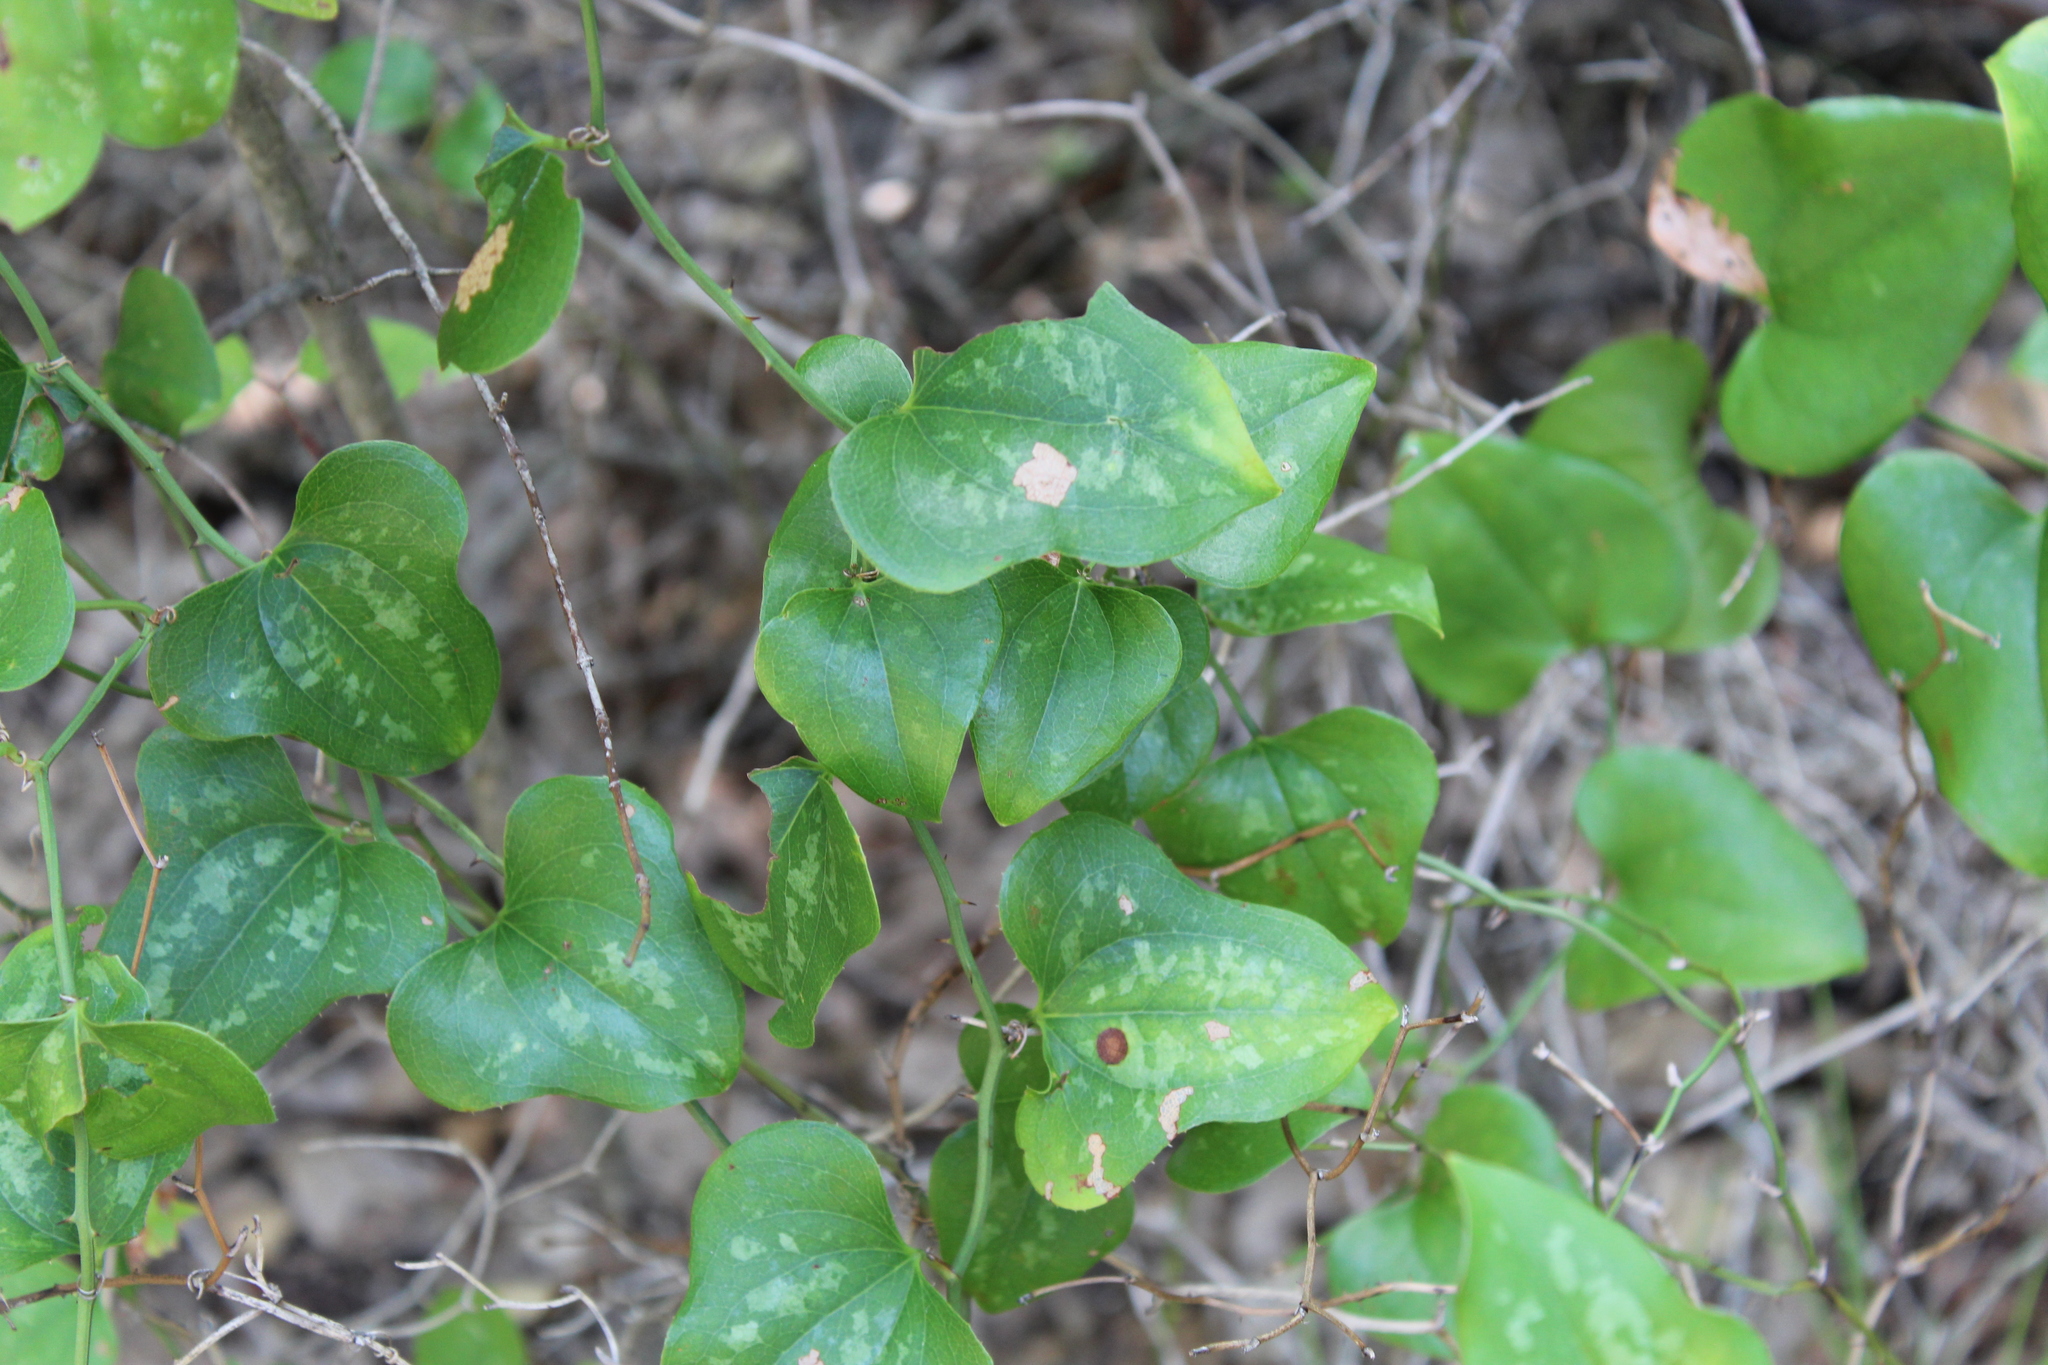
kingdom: Plantae
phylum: Tracheophyta
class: Liliopsida
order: Liliales
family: Smilacaceae
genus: Smilax
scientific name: Smilax bona-nox
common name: Catbrier
